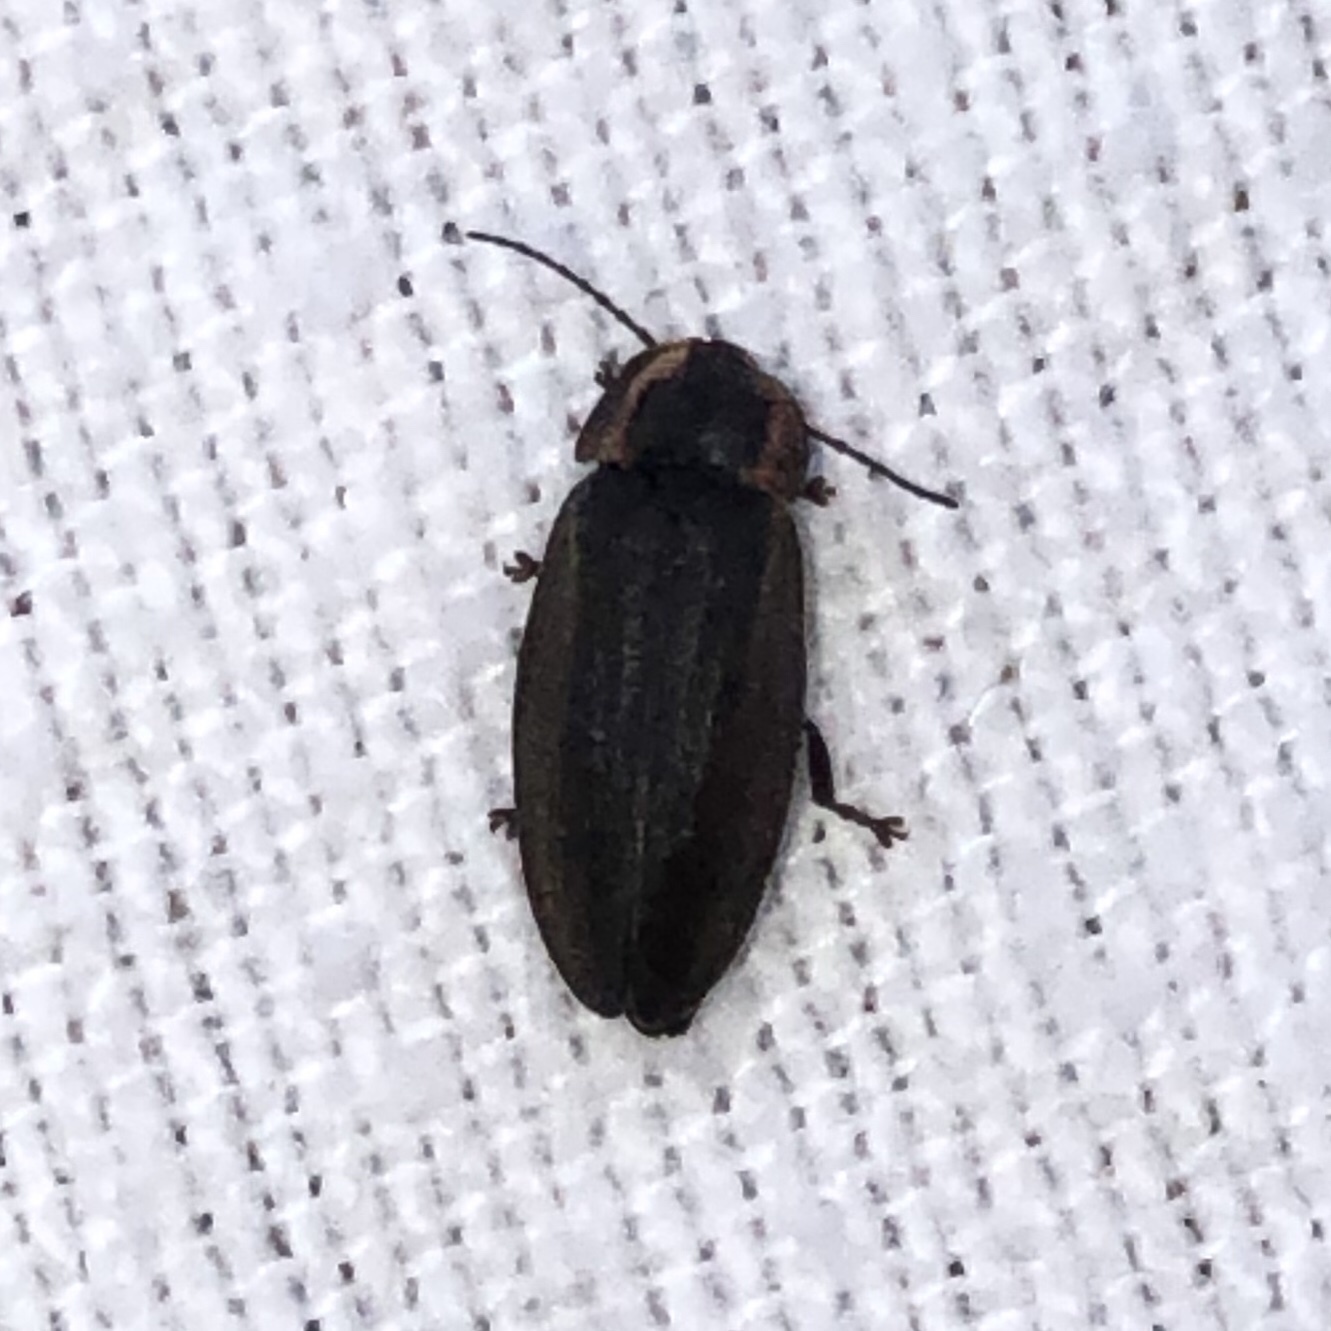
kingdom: Animalia
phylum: Arthropoda
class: Insecta
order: Coleoptera
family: Lampyridae
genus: Photinus
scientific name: Photinus corrusca
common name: Winter firefly
